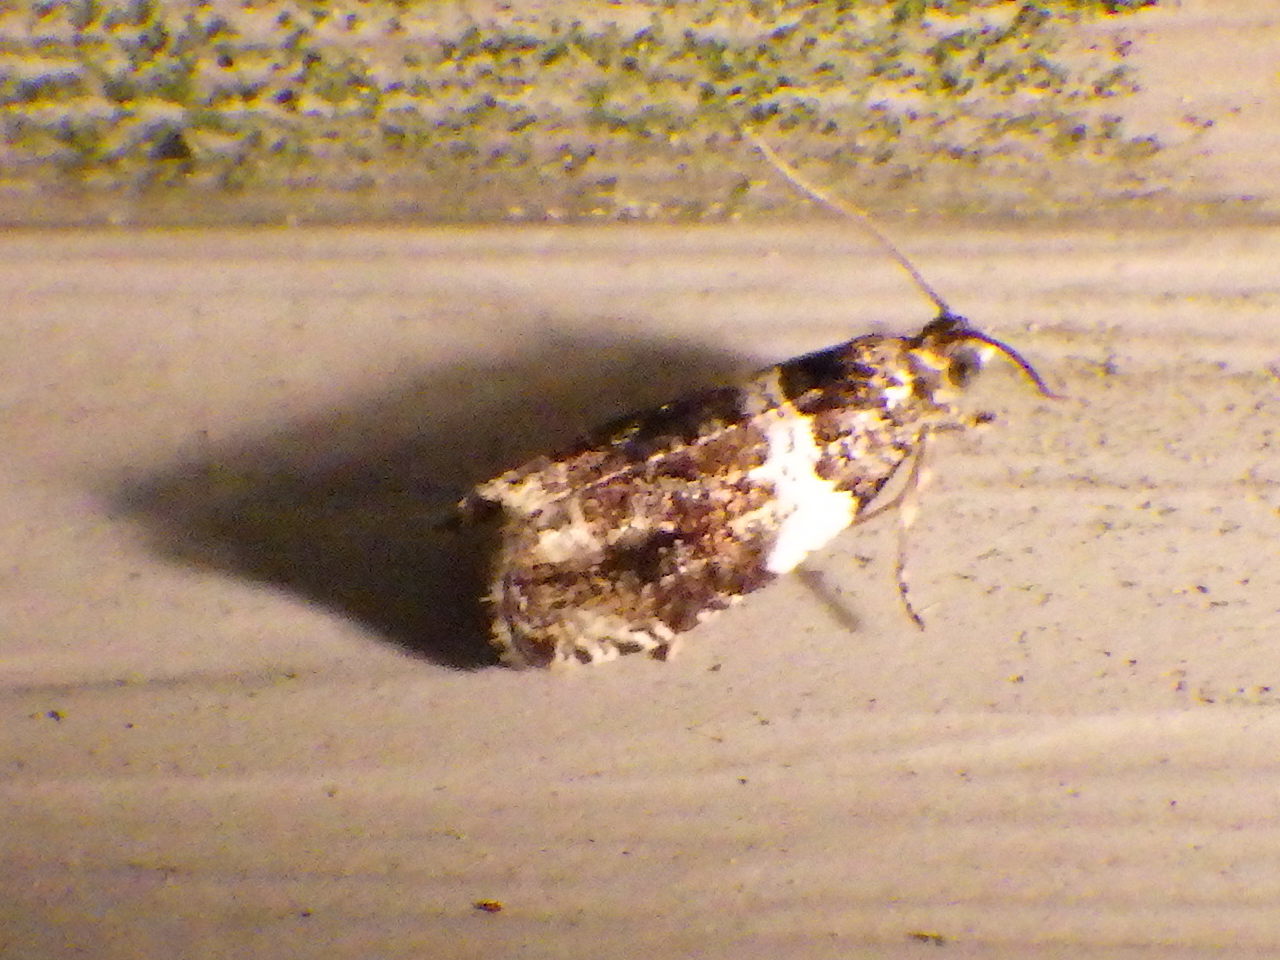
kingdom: Animalia
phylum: Arthropoda
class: Insecta
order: Lepidoptera
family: Tortricidae
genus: Olethreutes
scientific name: Olethreutes fasciatana
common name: Banded olethreutes moth
